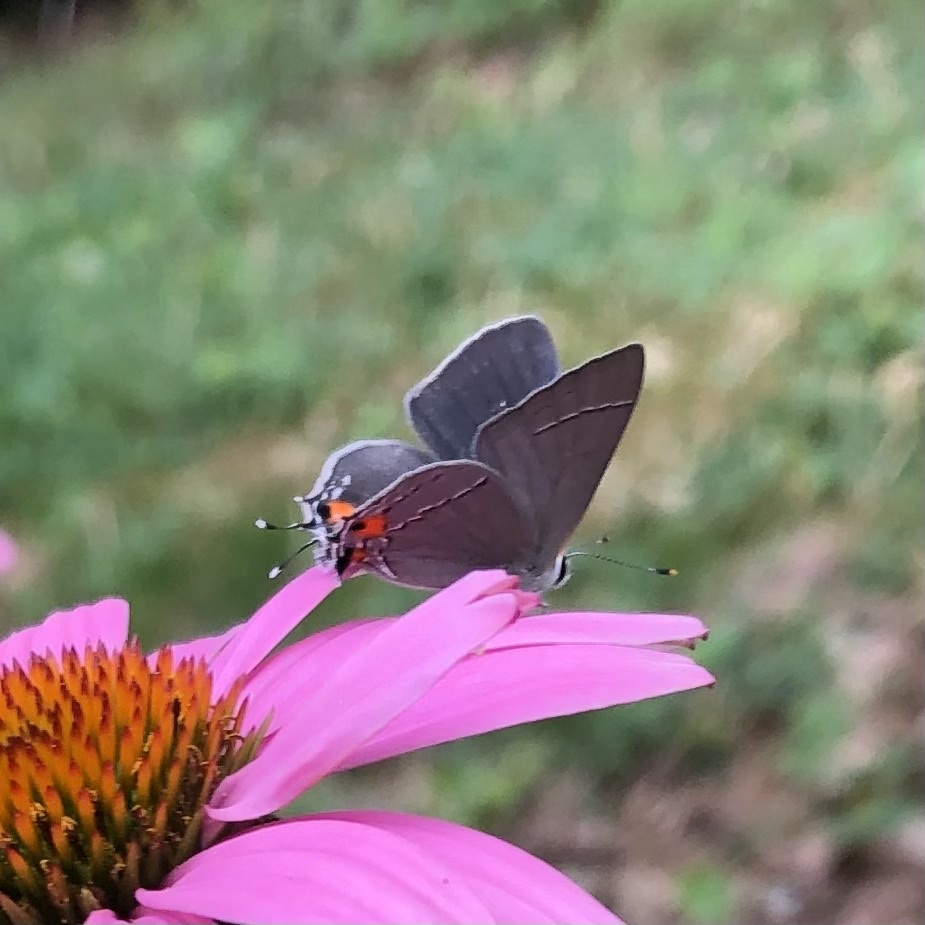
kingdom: Animalia
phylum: Arthropoda
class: Insecta
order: Lepidoptera
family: Lycaenidae
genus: Strymon
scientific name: Strymon melinus
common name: Gray hairstreak
